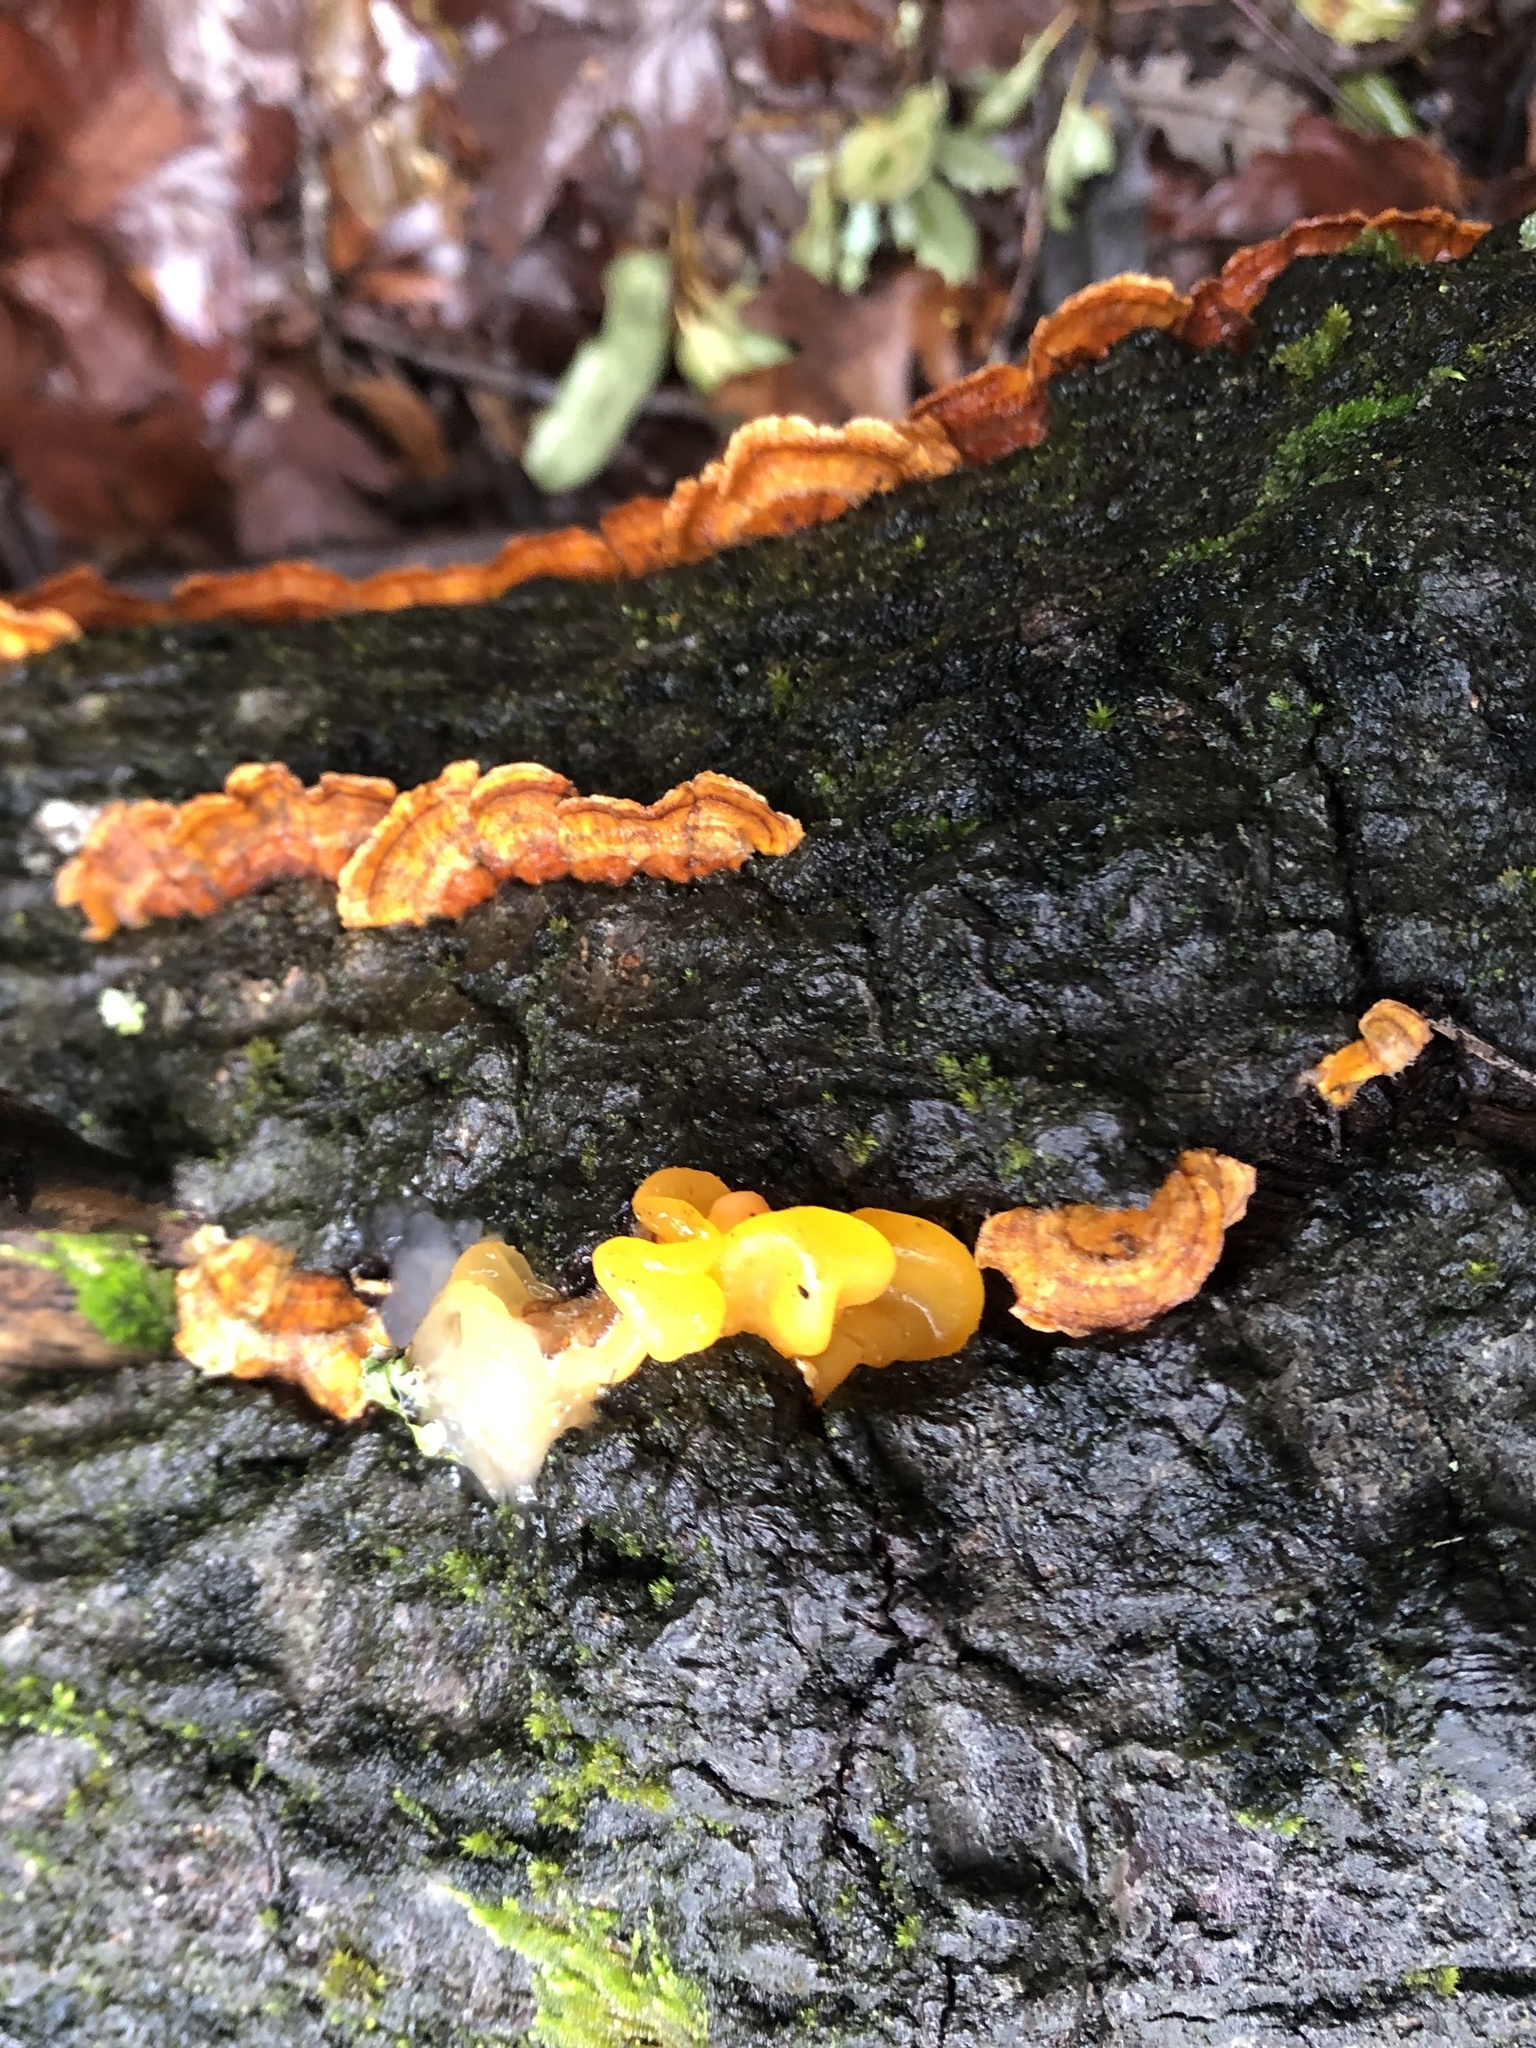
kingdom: Fungi
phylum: Basidiomycota
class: Tremellomycetes
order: Tremellales
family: Naemateliaceae
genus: Naematelia
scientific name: Naematelia aurantia
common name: Golden ear
